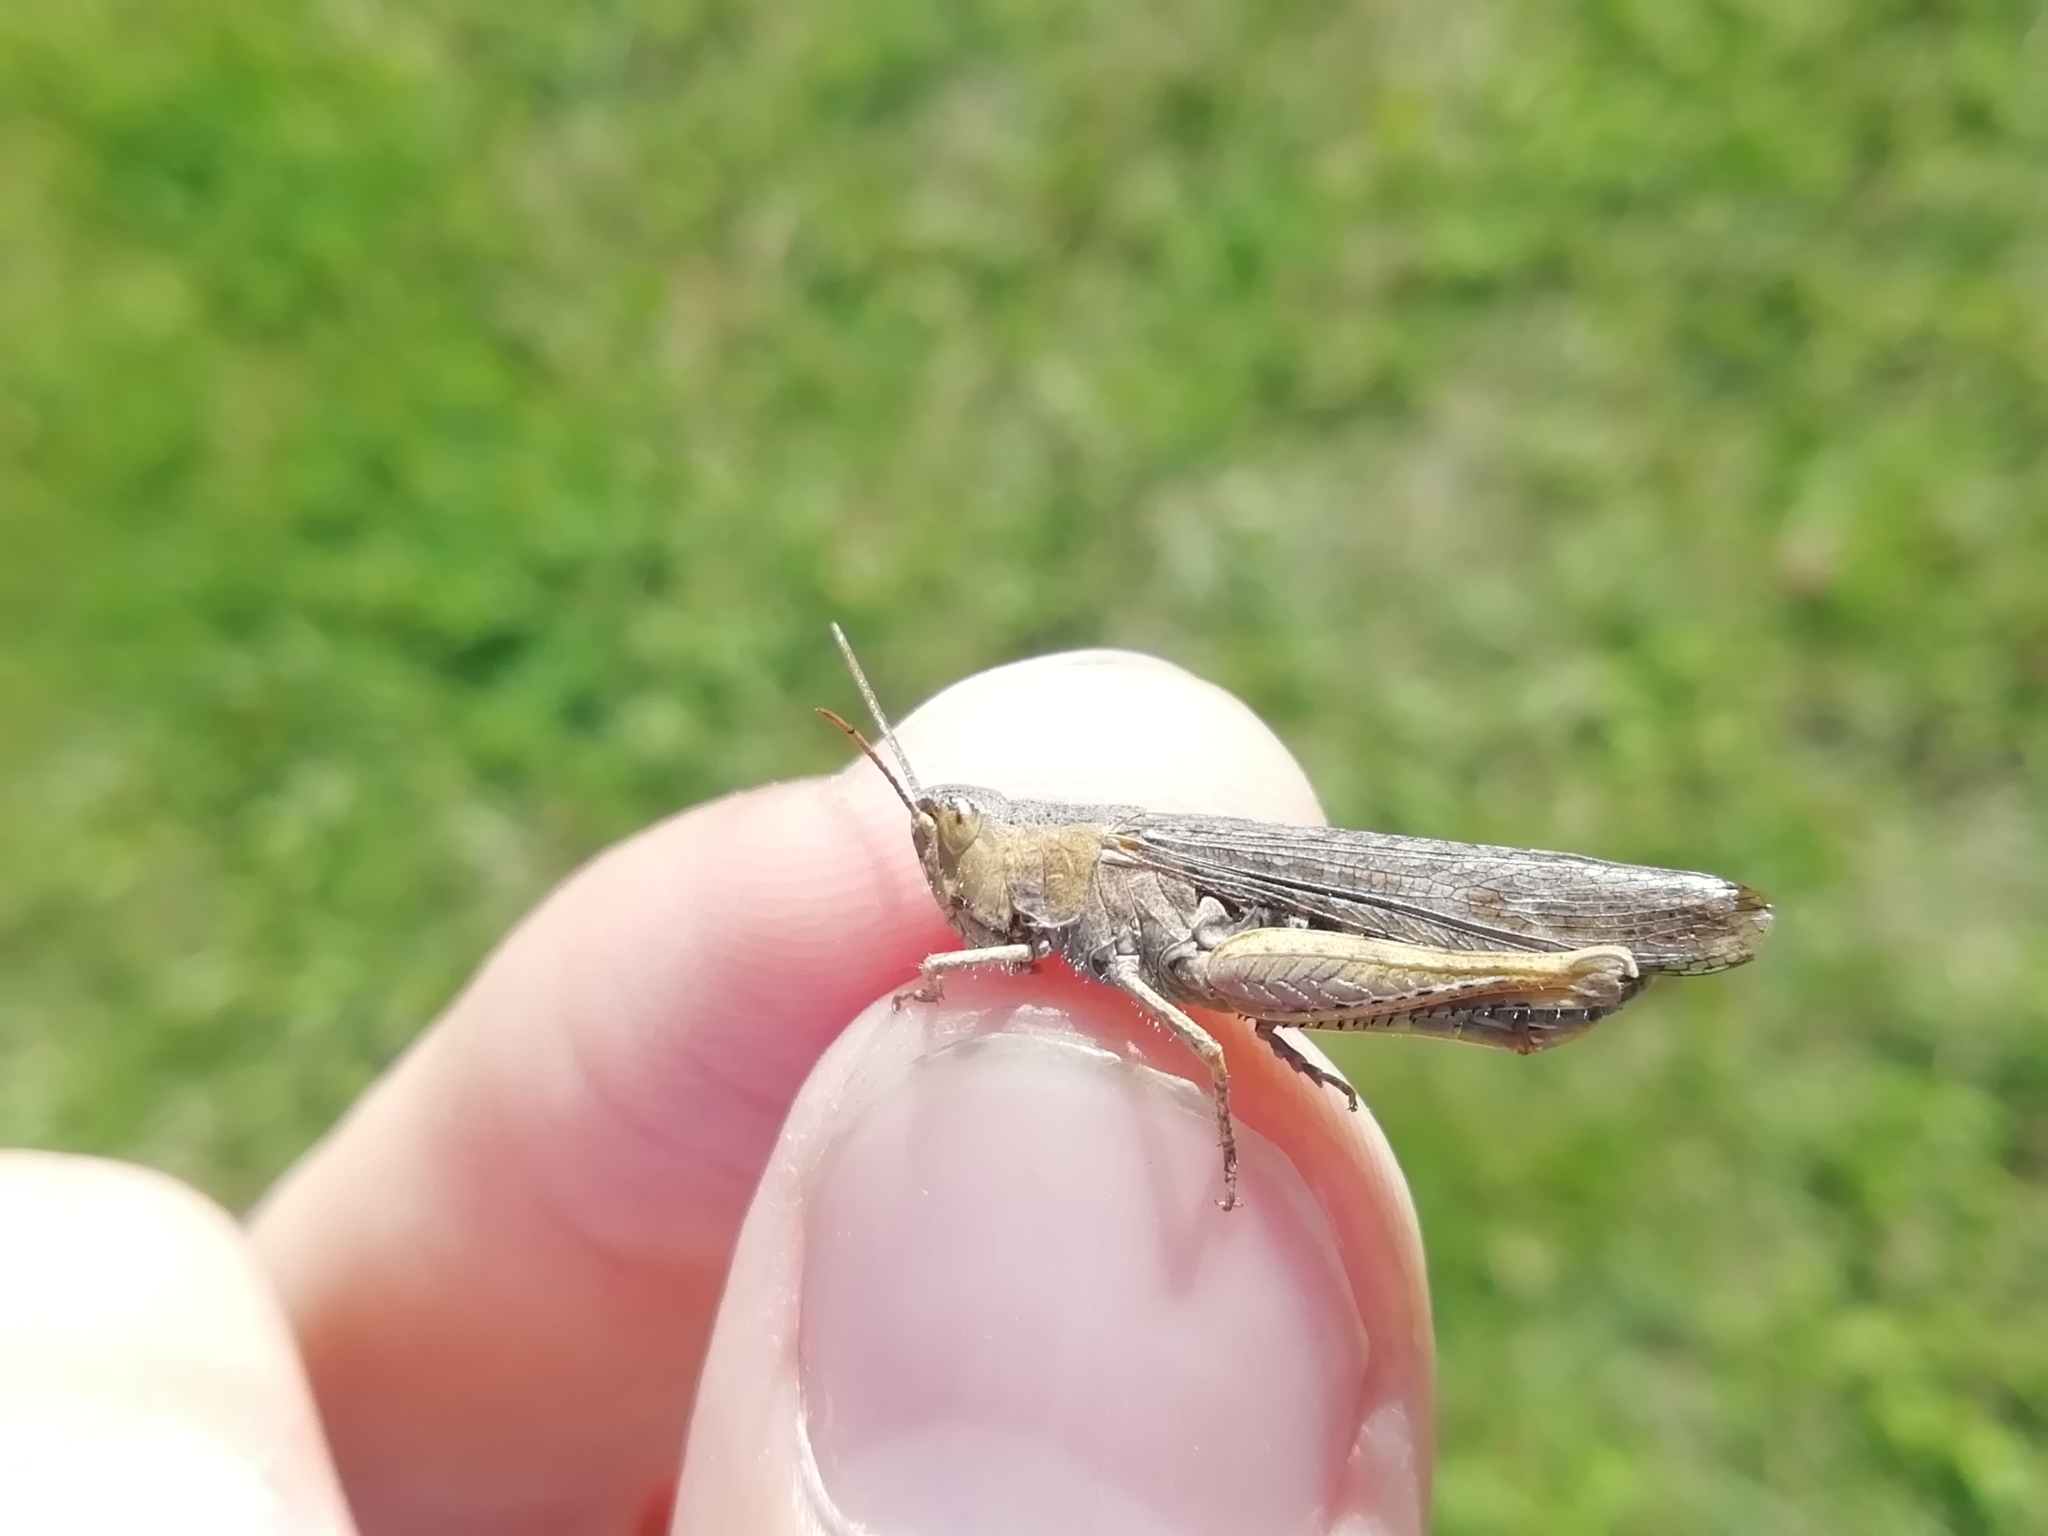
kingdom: Animalia
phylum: Arthropoda
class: Insecta
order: Orthoptera
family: Acrididae
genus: Chorthippus
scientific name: Chorthippus biguttulus
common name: Bow-winged grasshopper
